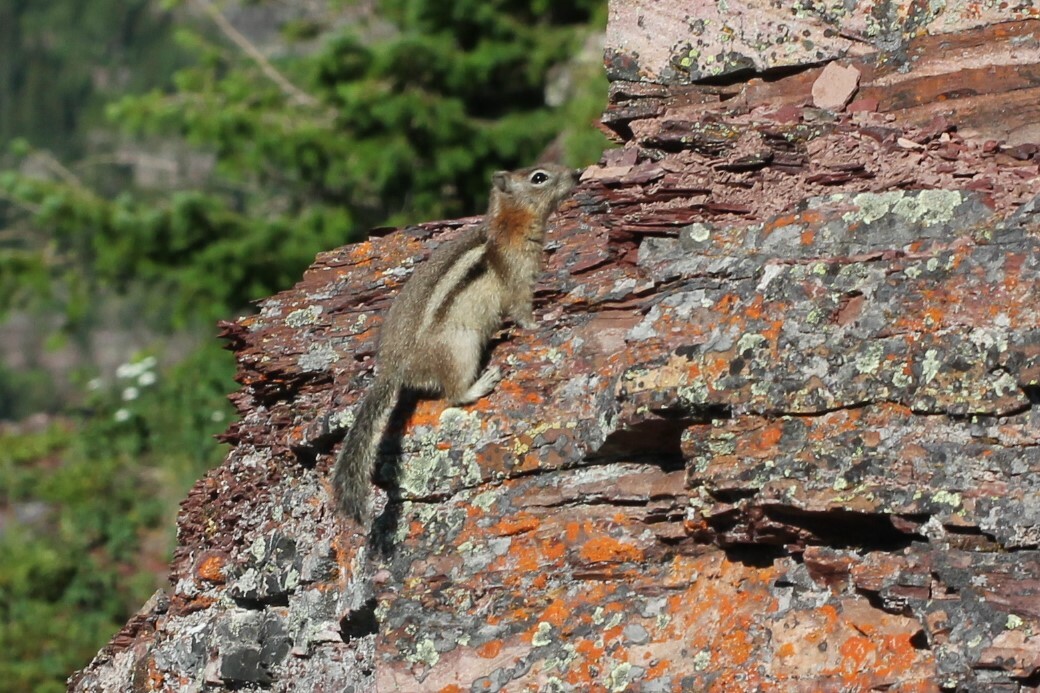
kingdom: Animalia
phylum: Chordata
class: Mammalia
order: Rodentia
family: Sciuridae
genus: Callospermophilus
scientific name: Callospermophilus lateralis
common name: Golden-mantled ground squirrel
